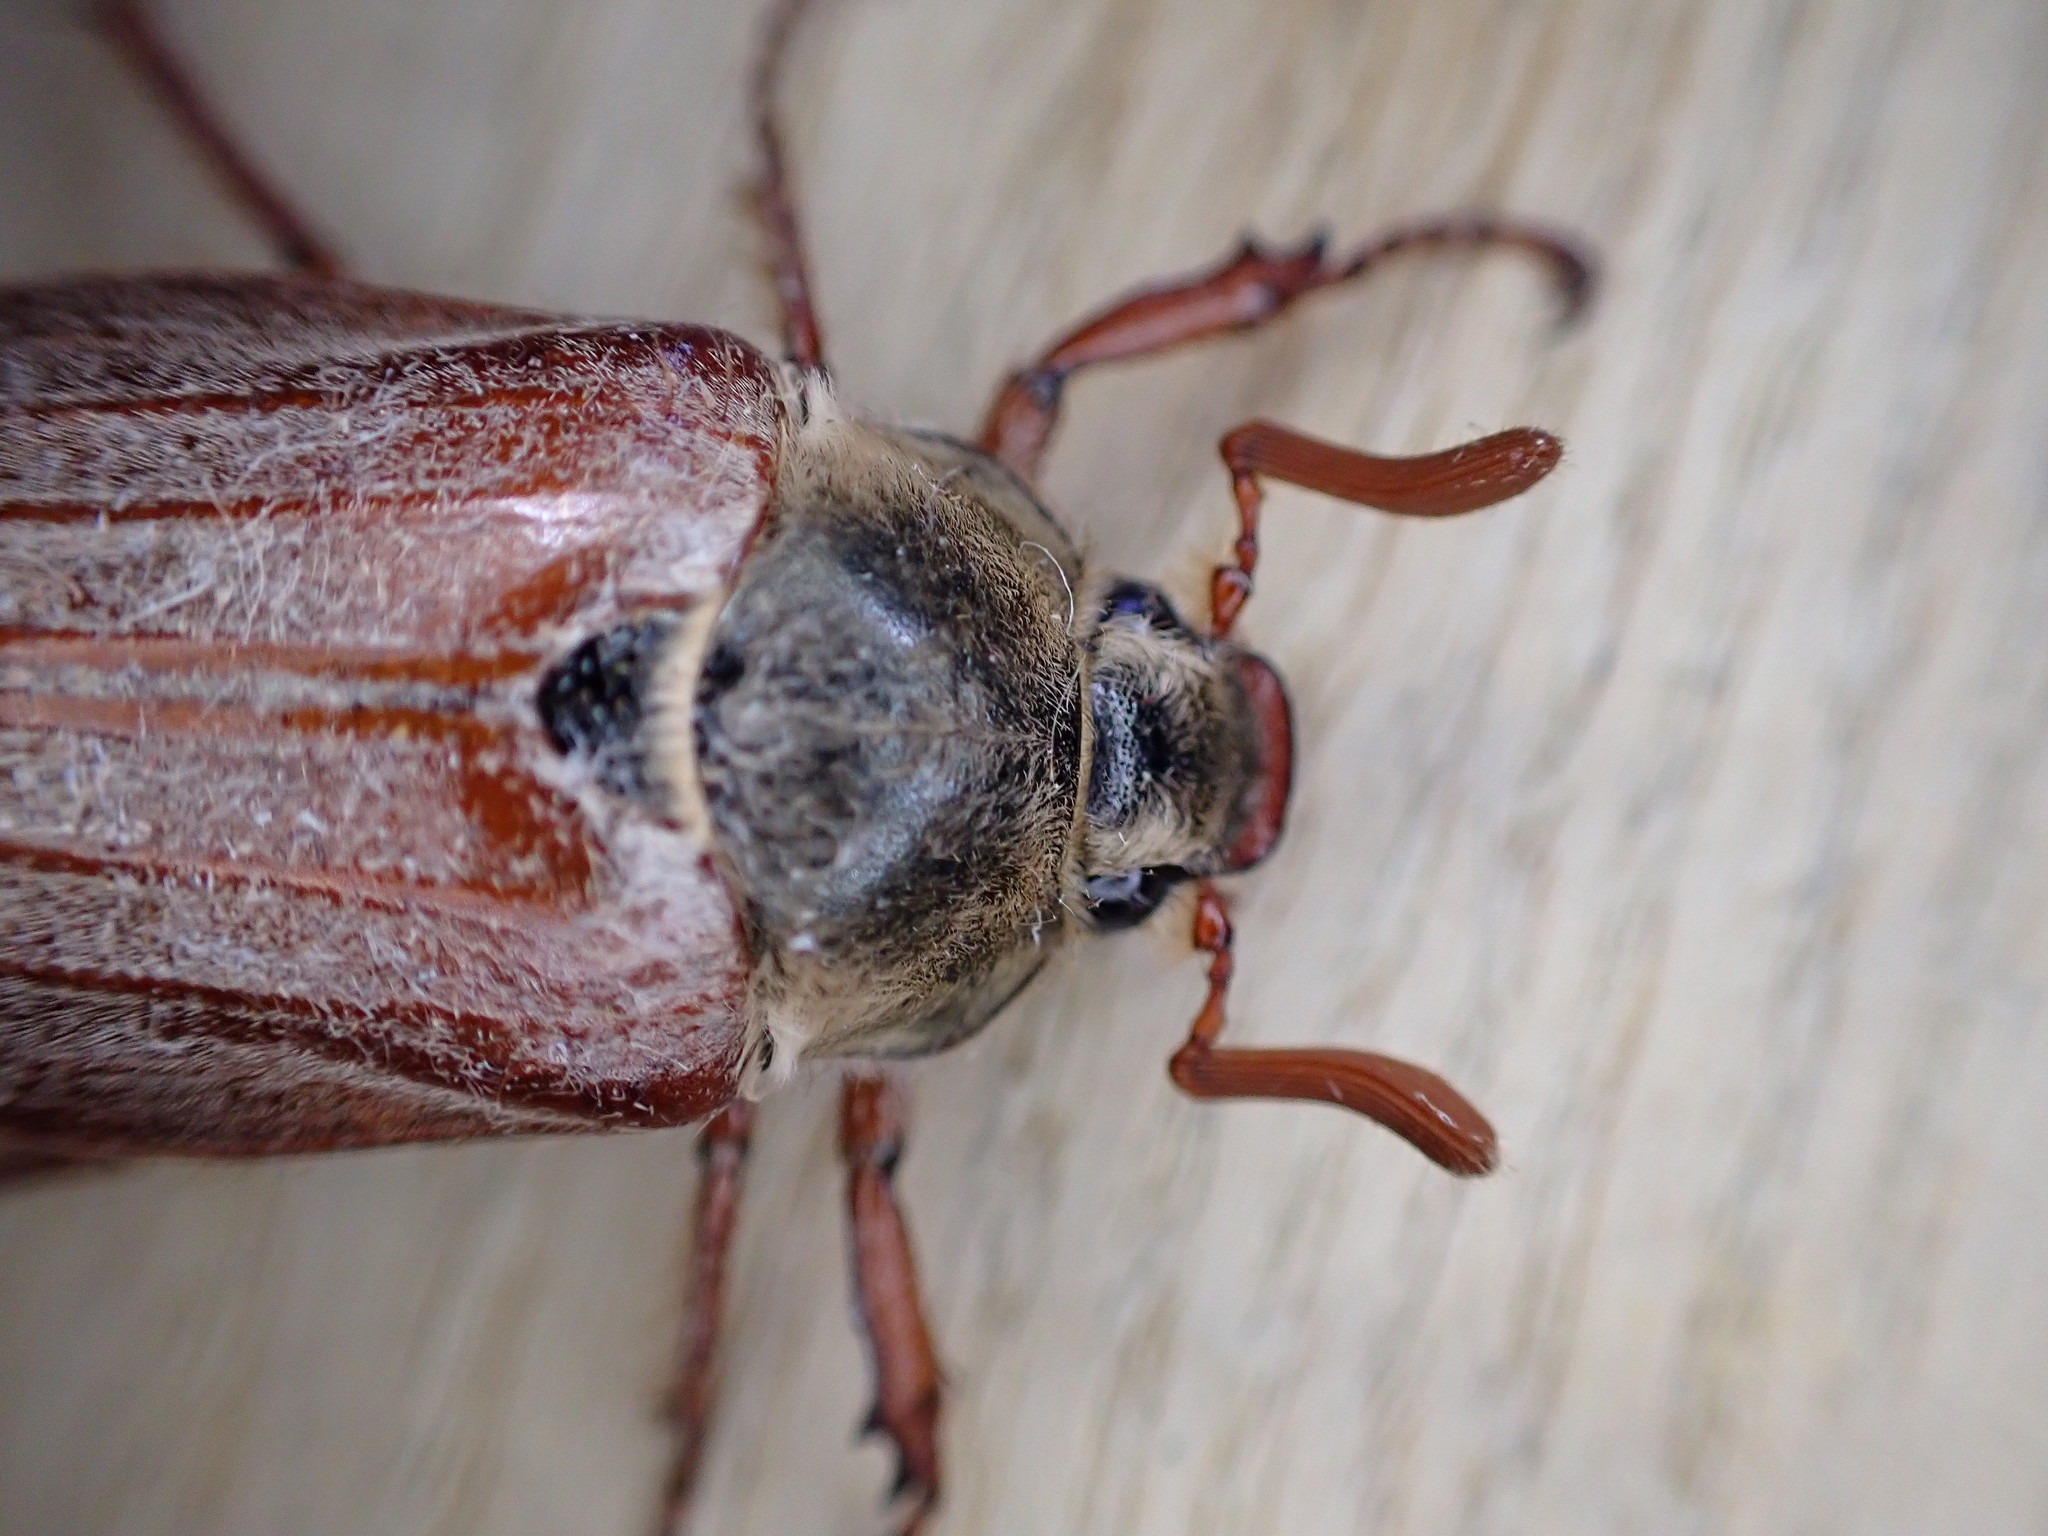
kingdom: Animalia
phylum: Arthropoda
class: Insecta
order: Coleoptera
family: Scarabaeidae
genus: Melolontha
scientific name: Melolontha melolontha
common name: Cockchafer maybeetle
